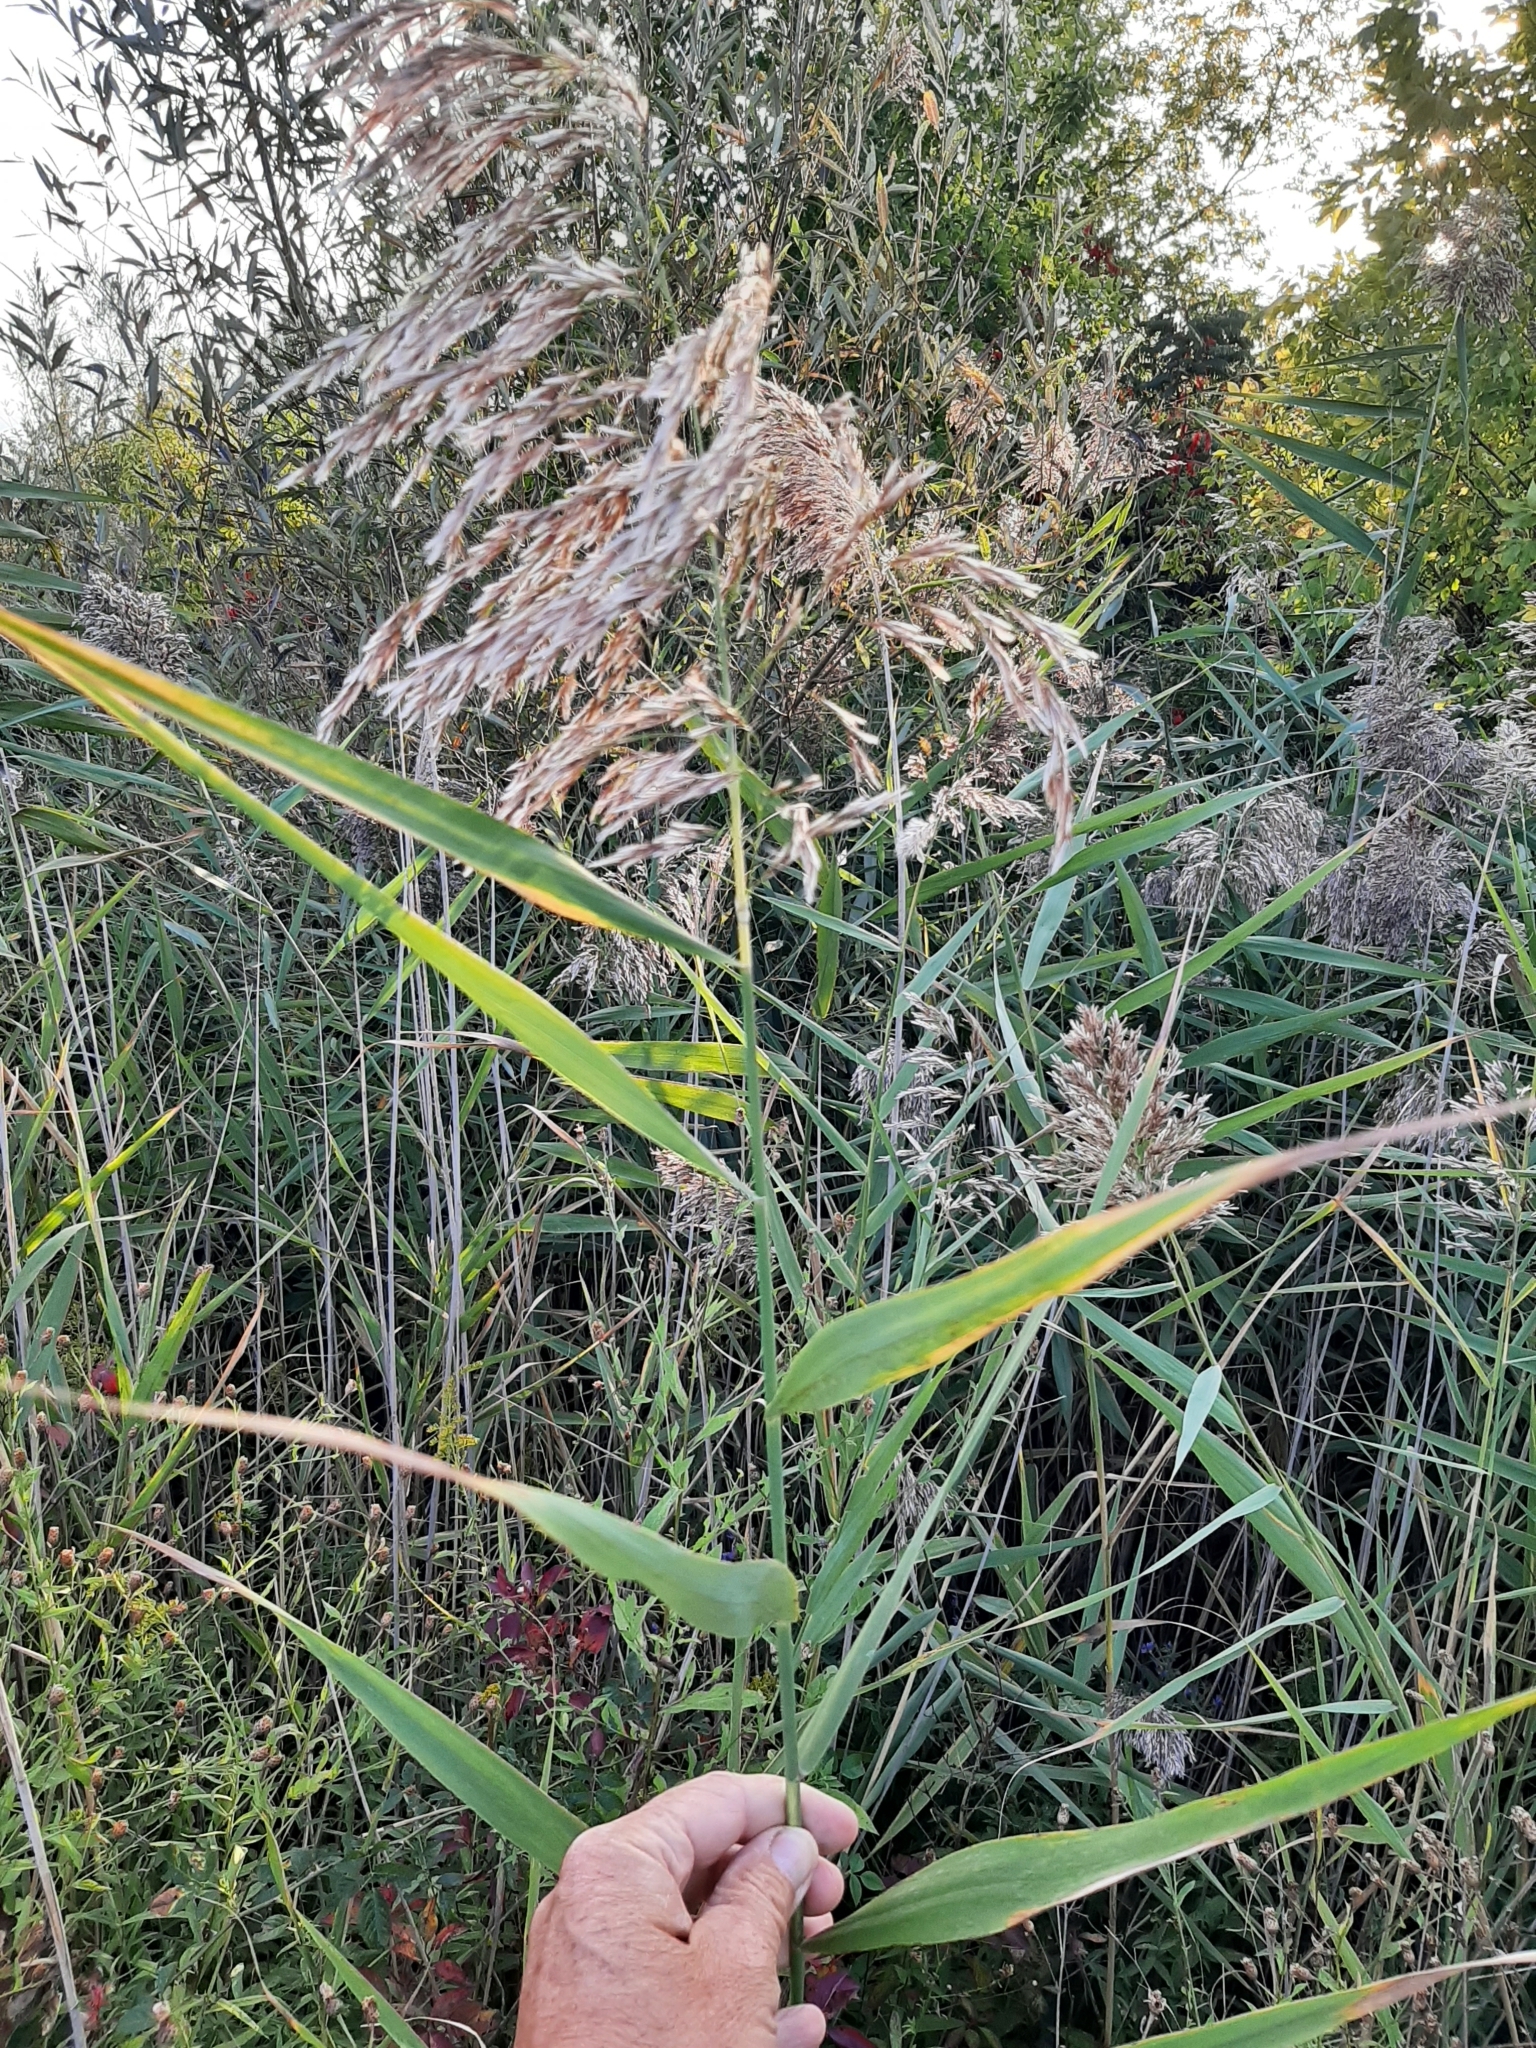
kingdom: Plantae
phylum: Tracheophyta
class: Liliopsida
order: Poales
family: Poaceae
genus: Phragmites
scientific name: Phragmites australis
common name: Common reed
